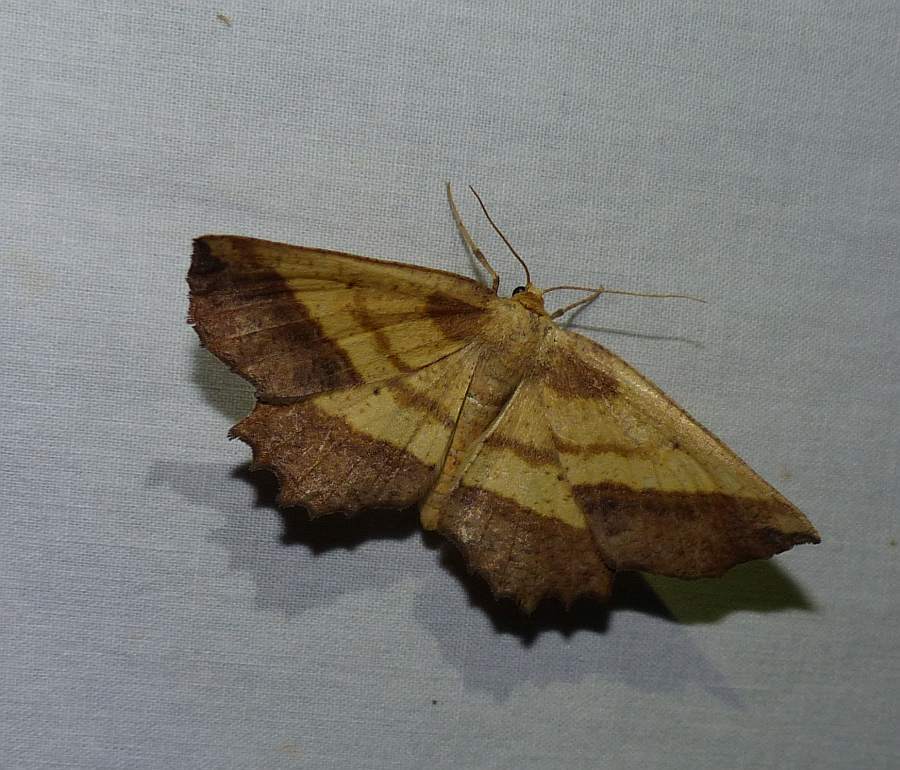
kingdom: Animalia
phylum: Arthropoda
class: Insecta
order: Lepidoptera
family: Geometridae
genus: Euchlaena
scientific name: Euchlaena serrata
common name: Saw wing
